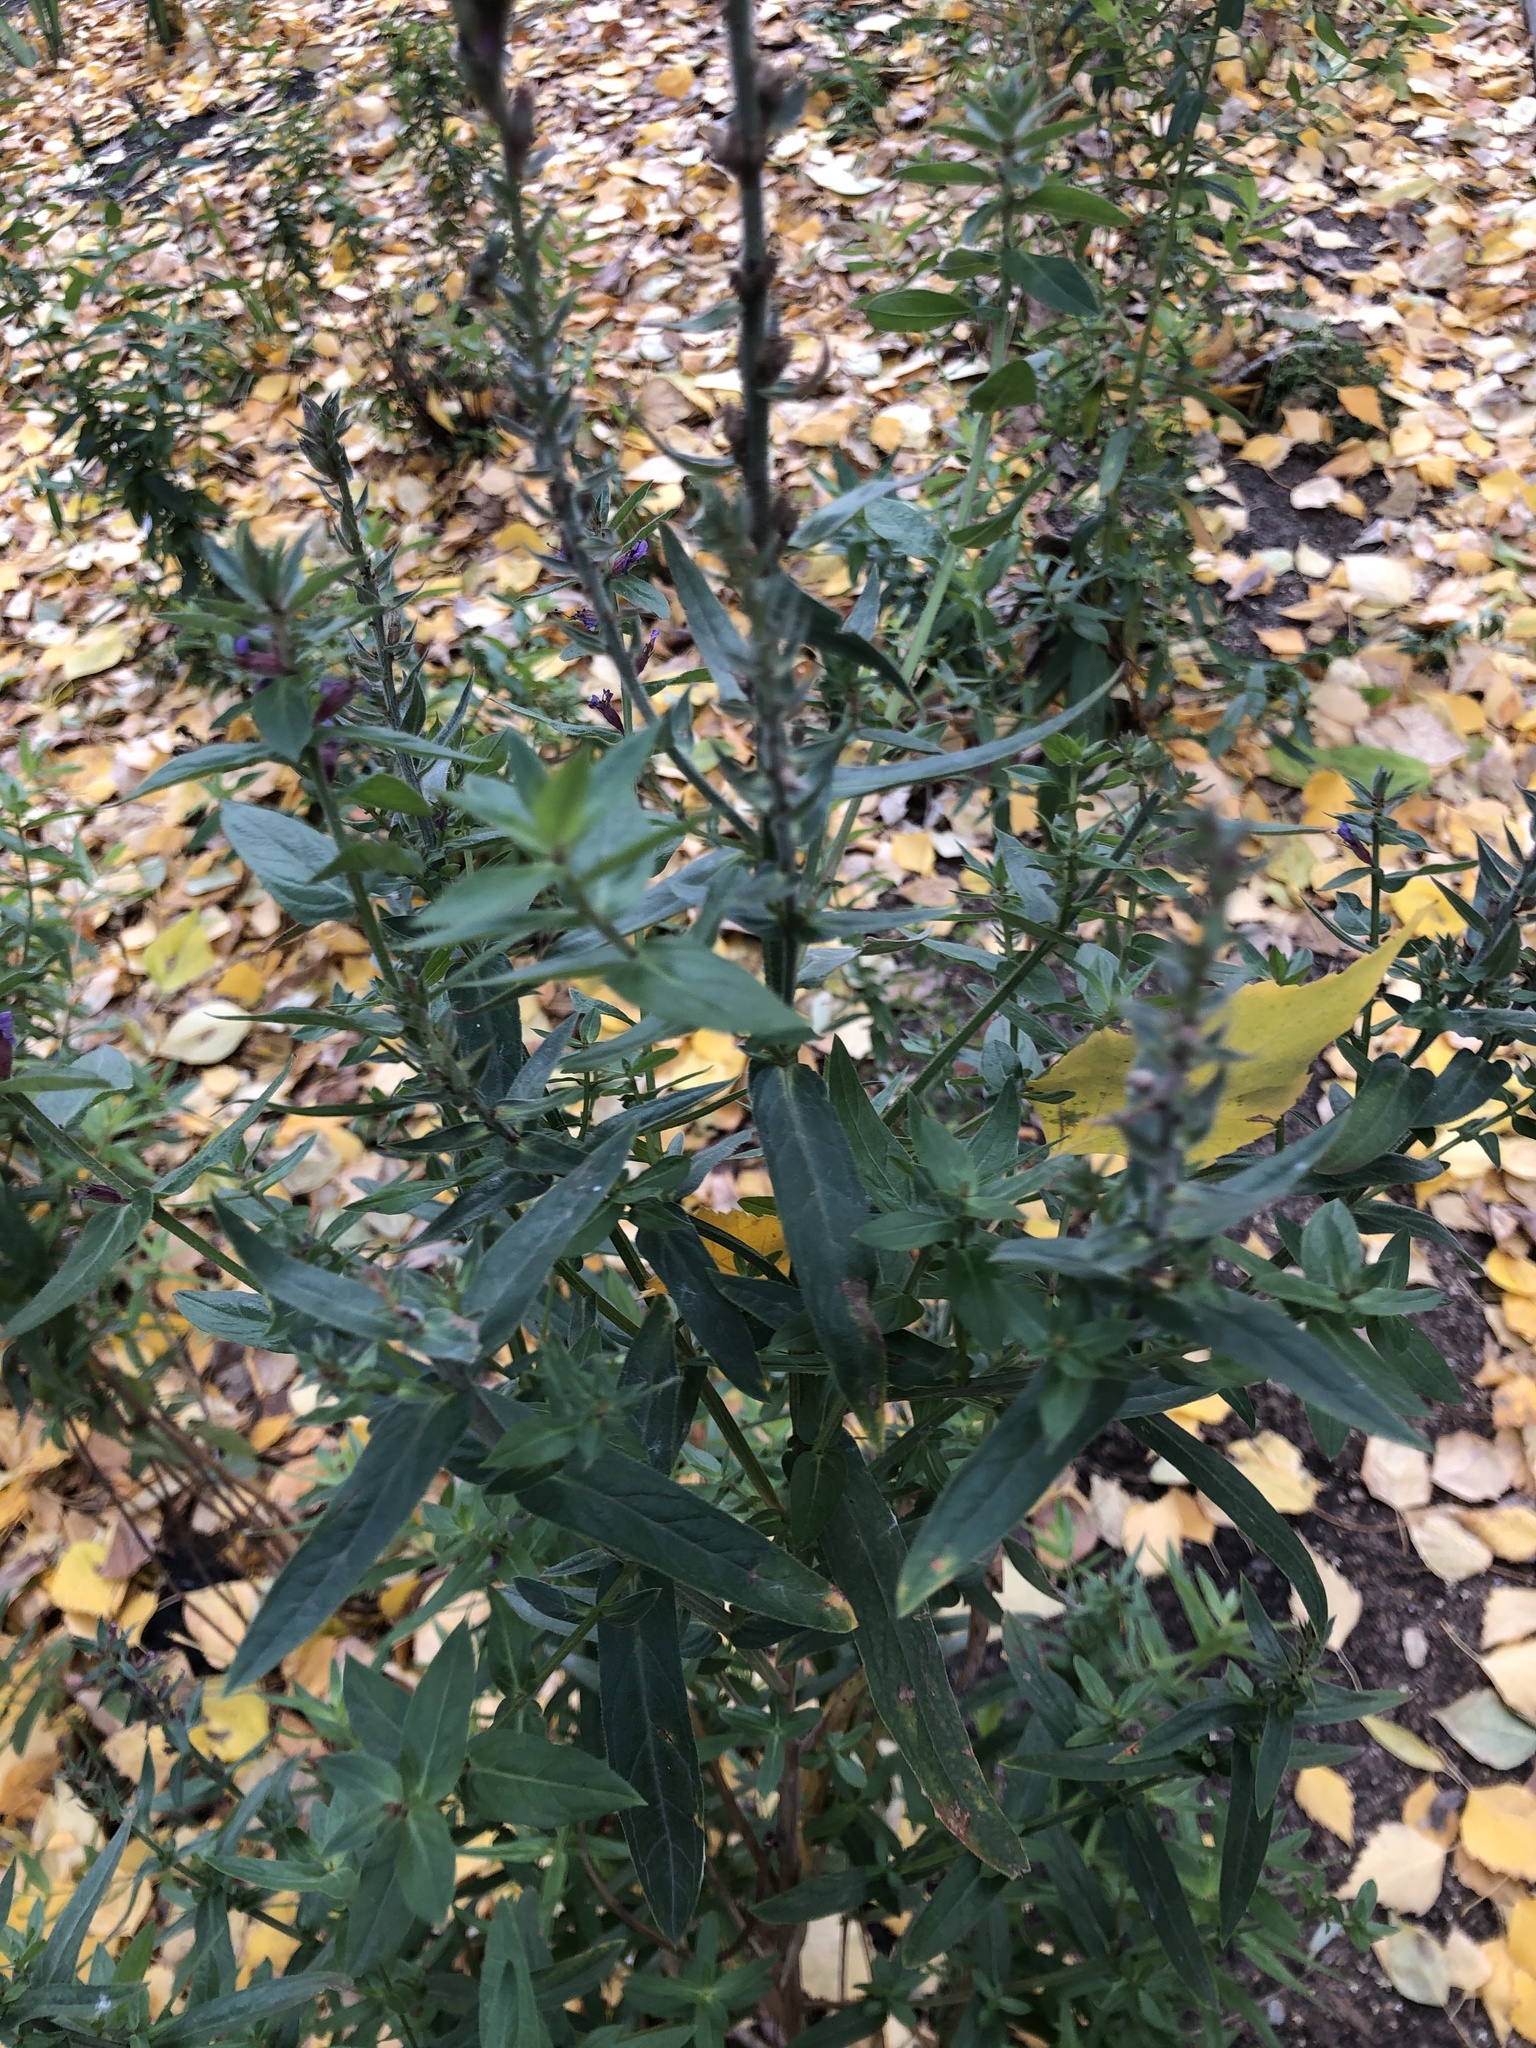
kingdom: Plantae
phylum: Tracheophyta
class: Magnoliopsida
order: Myrtales
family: Lythraceae
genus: Lythrum
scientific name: Lythrum salicaria
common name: Purple loosestrife
